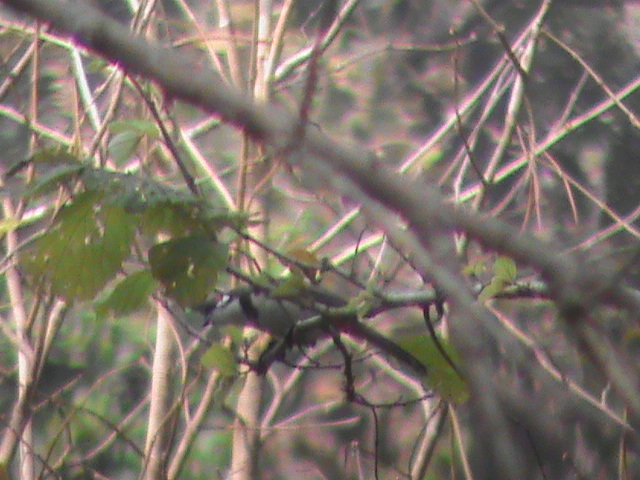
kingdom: Animalia
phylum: Chordata
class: Aves
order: Passeriformes
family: Pycnonotidae
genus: Pycnonotus
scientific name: Pycnonotus jocosus
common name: Red-whiskered bulbul
